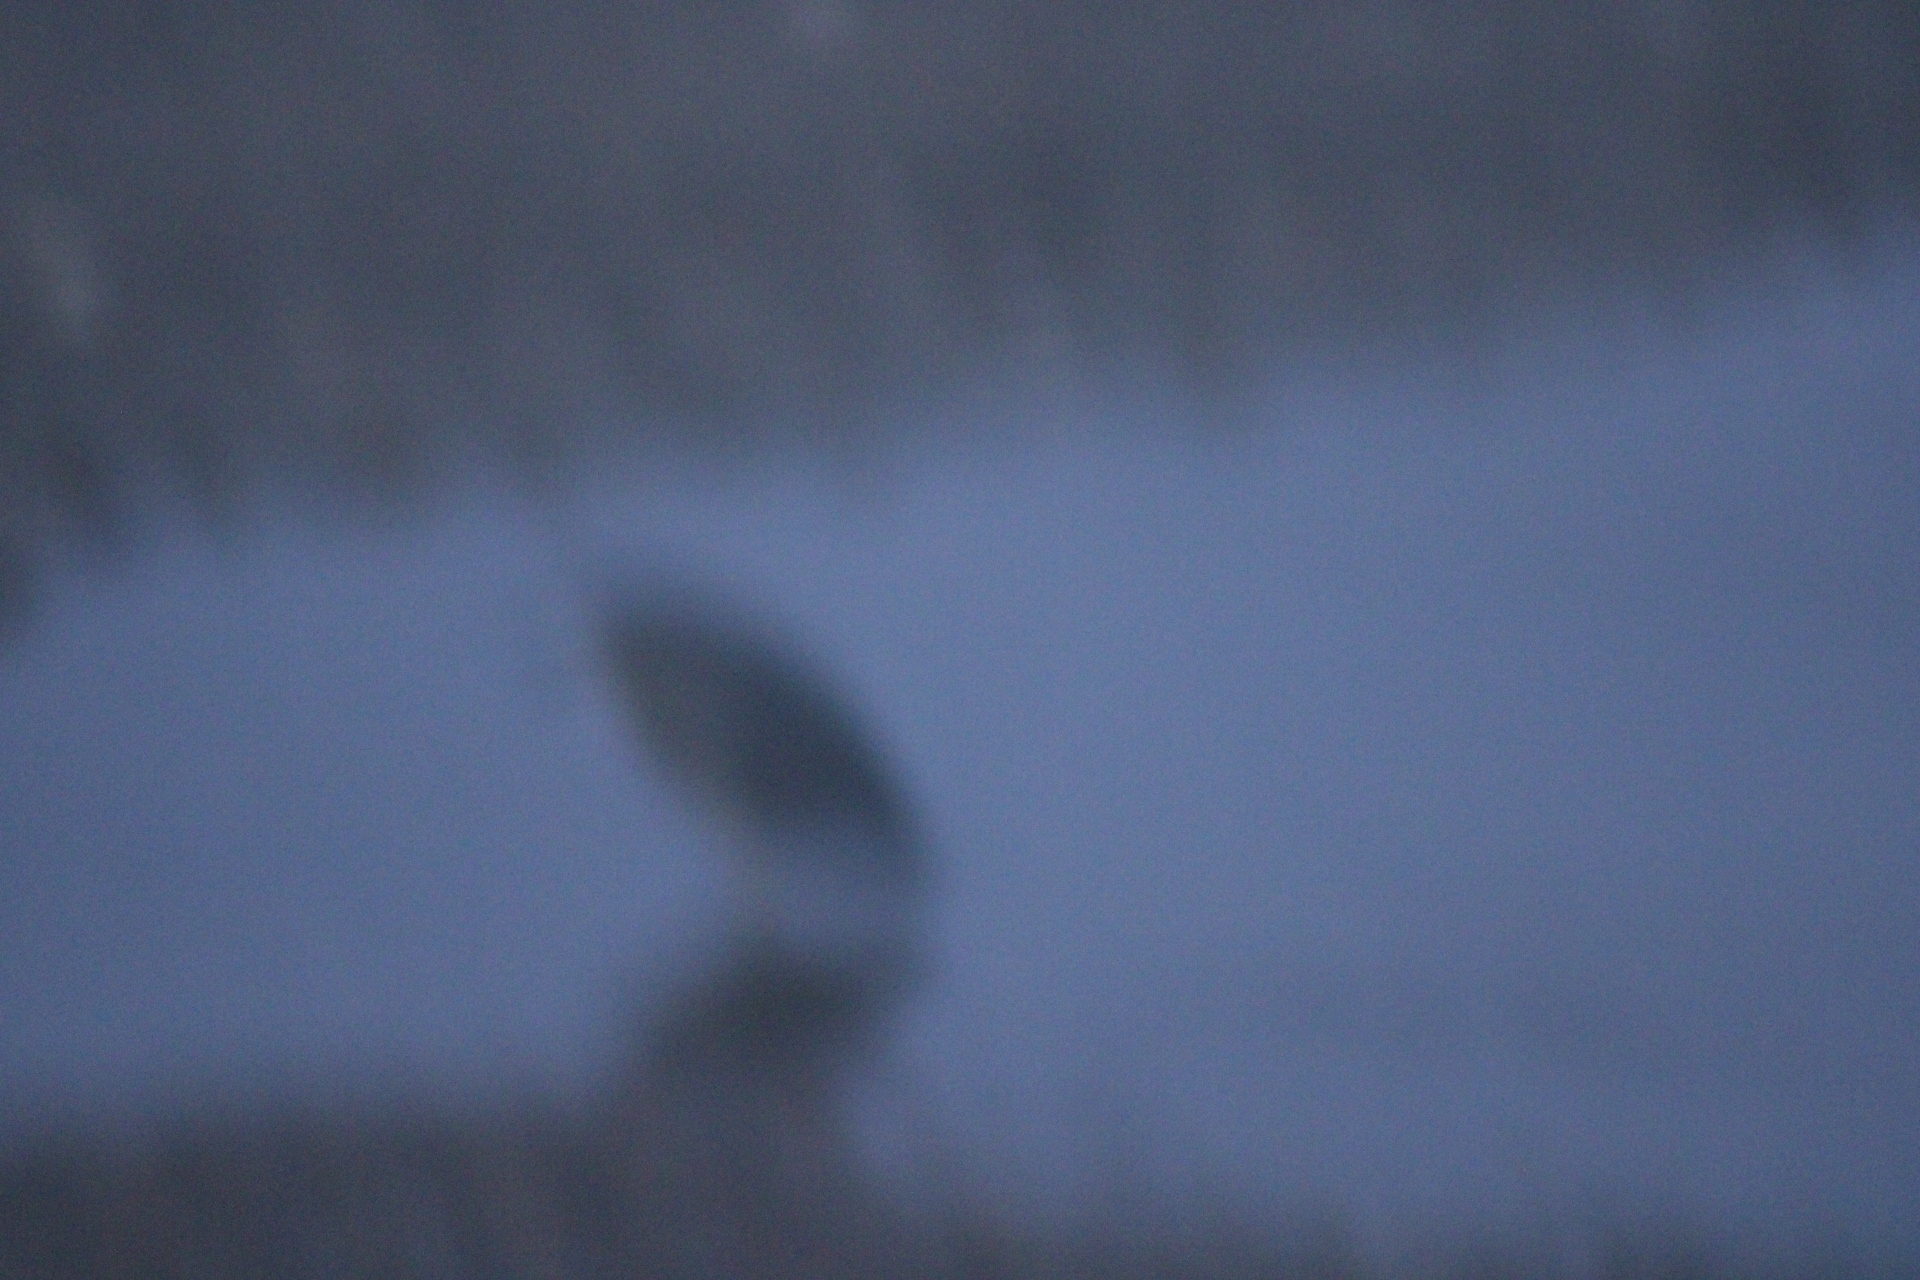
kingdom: Animalia
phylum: Chordata
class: Aves
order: Pelecaniformes
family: Ardeidae
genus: Nycticorax
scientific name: Nycticorax nycticorax
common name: Black-crowned night heron
